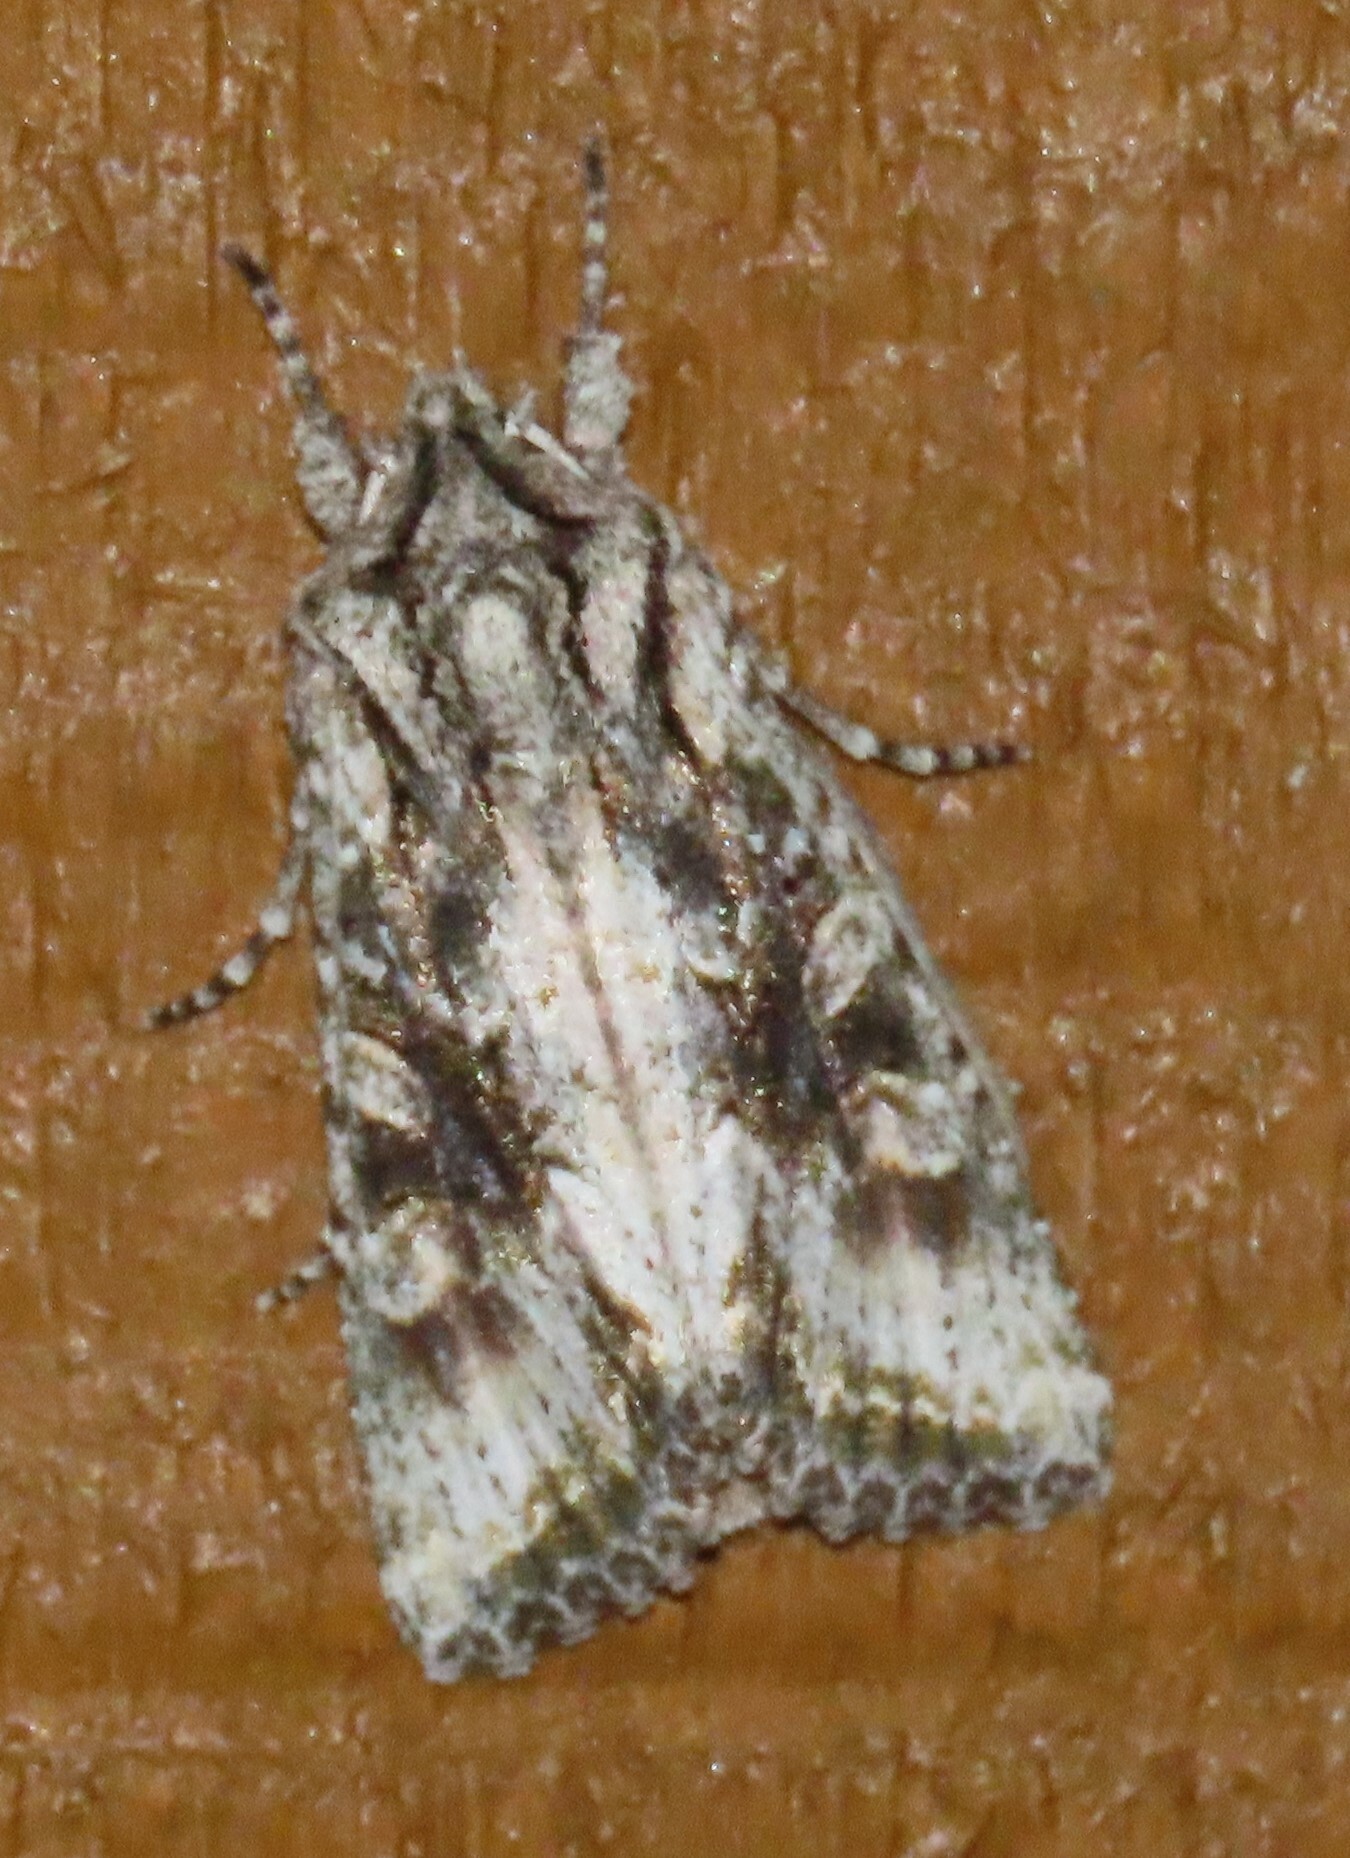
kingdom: Animalia
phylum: Arthropoda
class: Insecta
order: Lepidoptera
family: Noctuidae
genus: Ichneutica
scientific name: Ichneutica mutans
